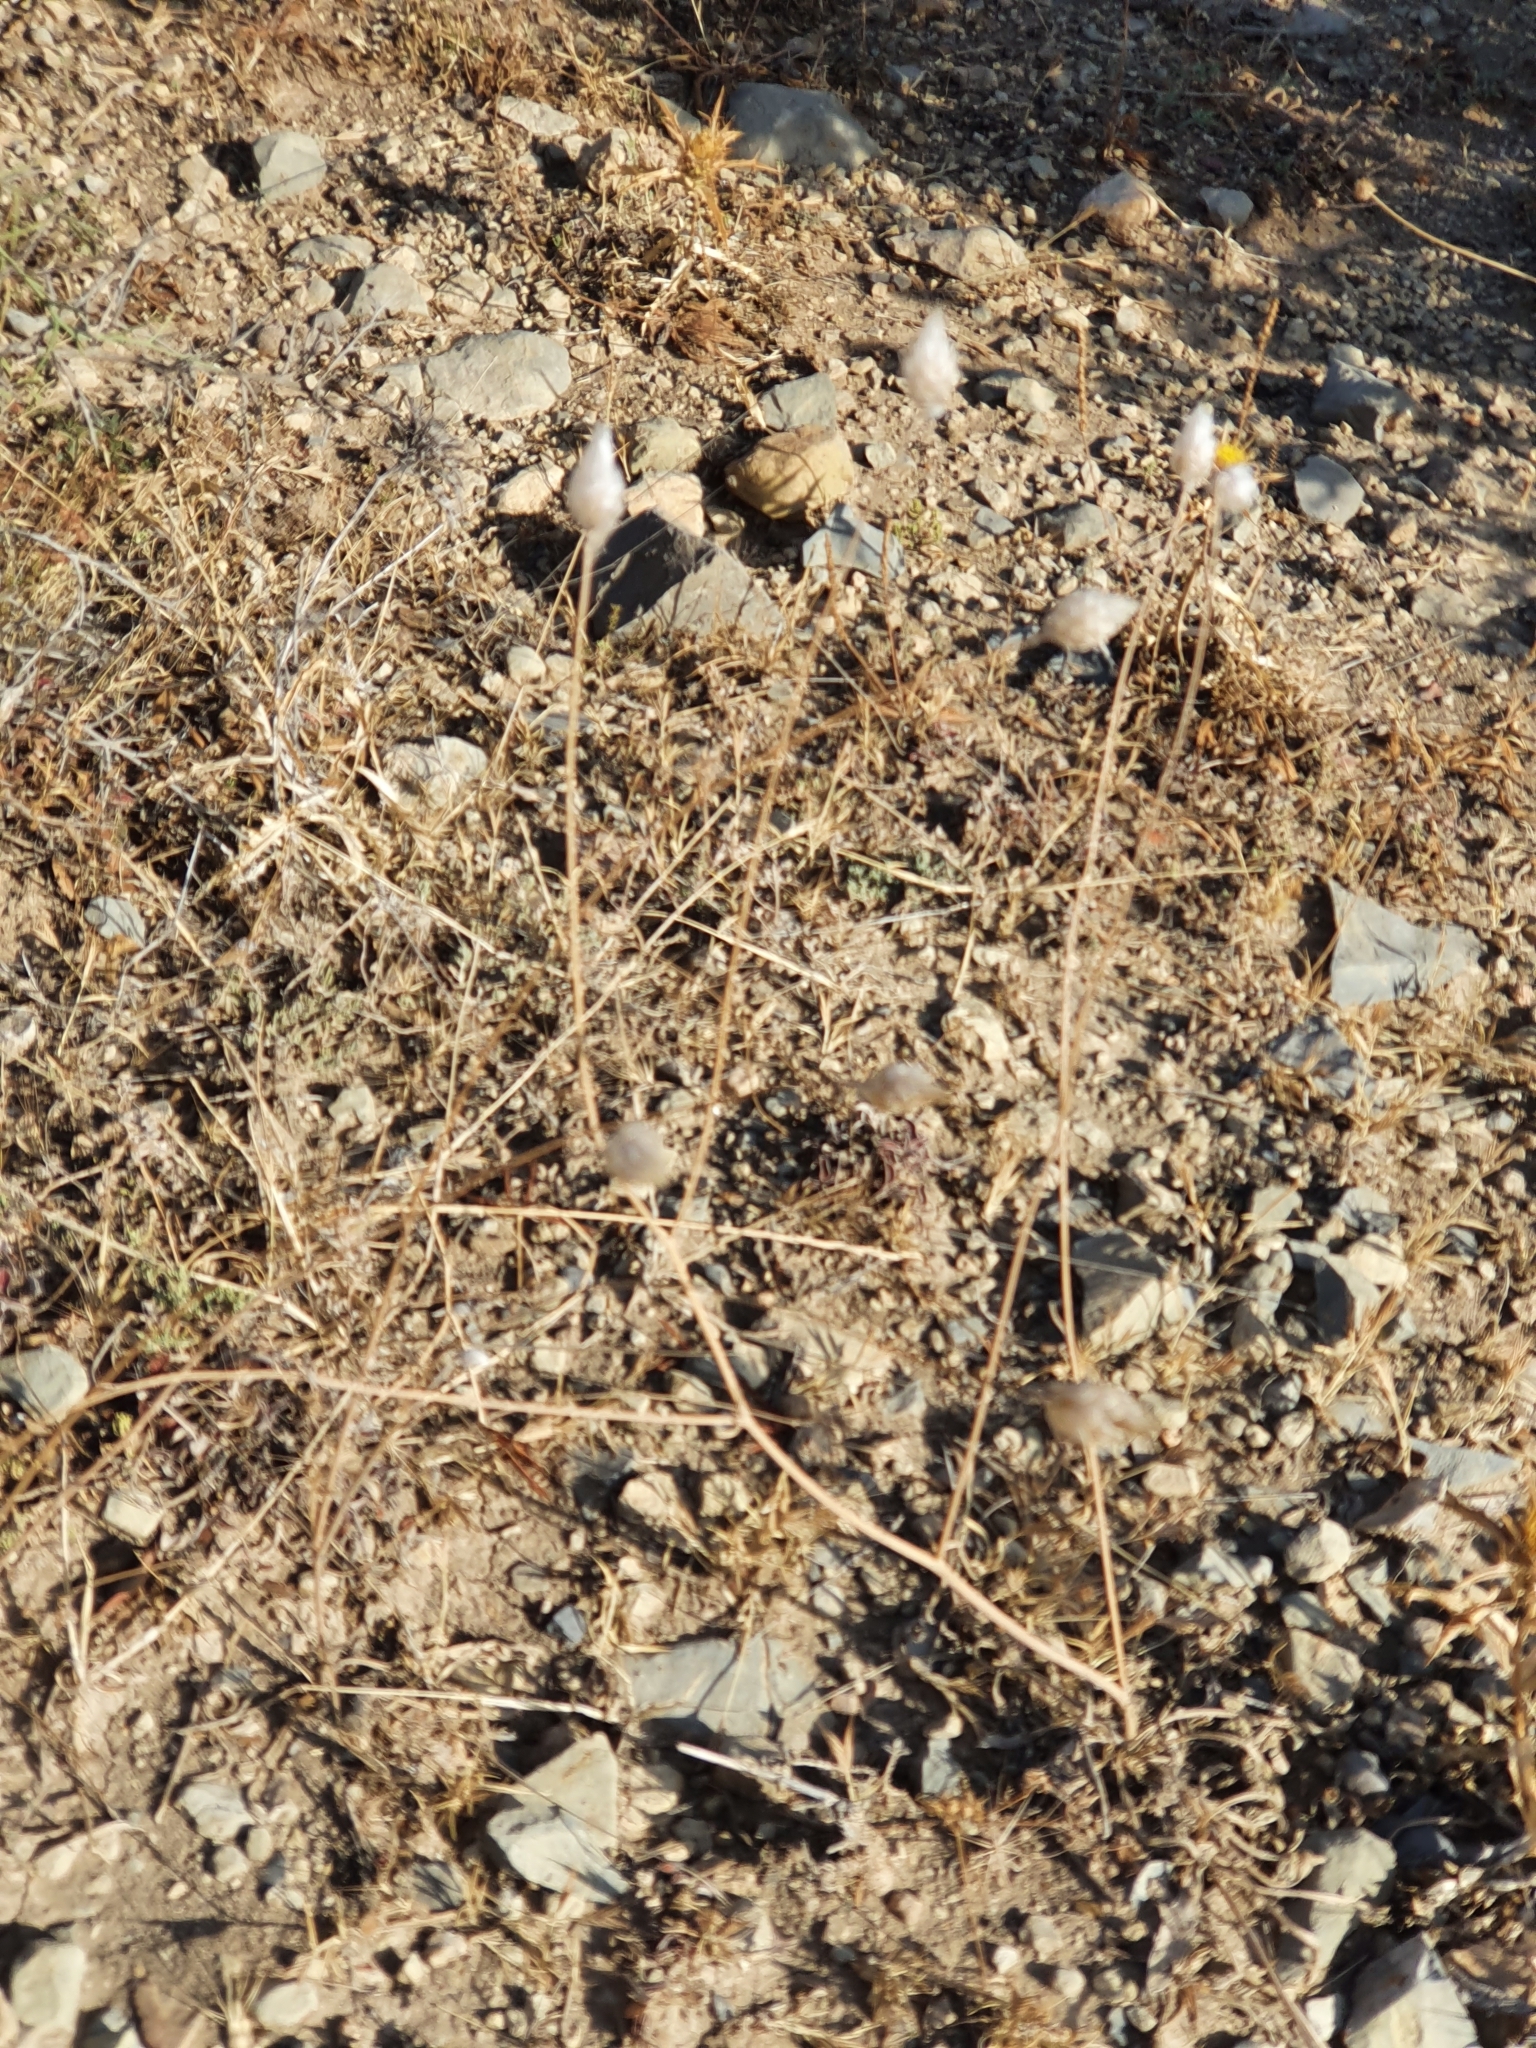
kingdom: Plantae
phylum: Tracheophyta
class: Magnoliopsida
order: Asterales
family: Asteraceae
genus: Catananche
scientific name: Catananche caerulea
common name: Blue cupidone
